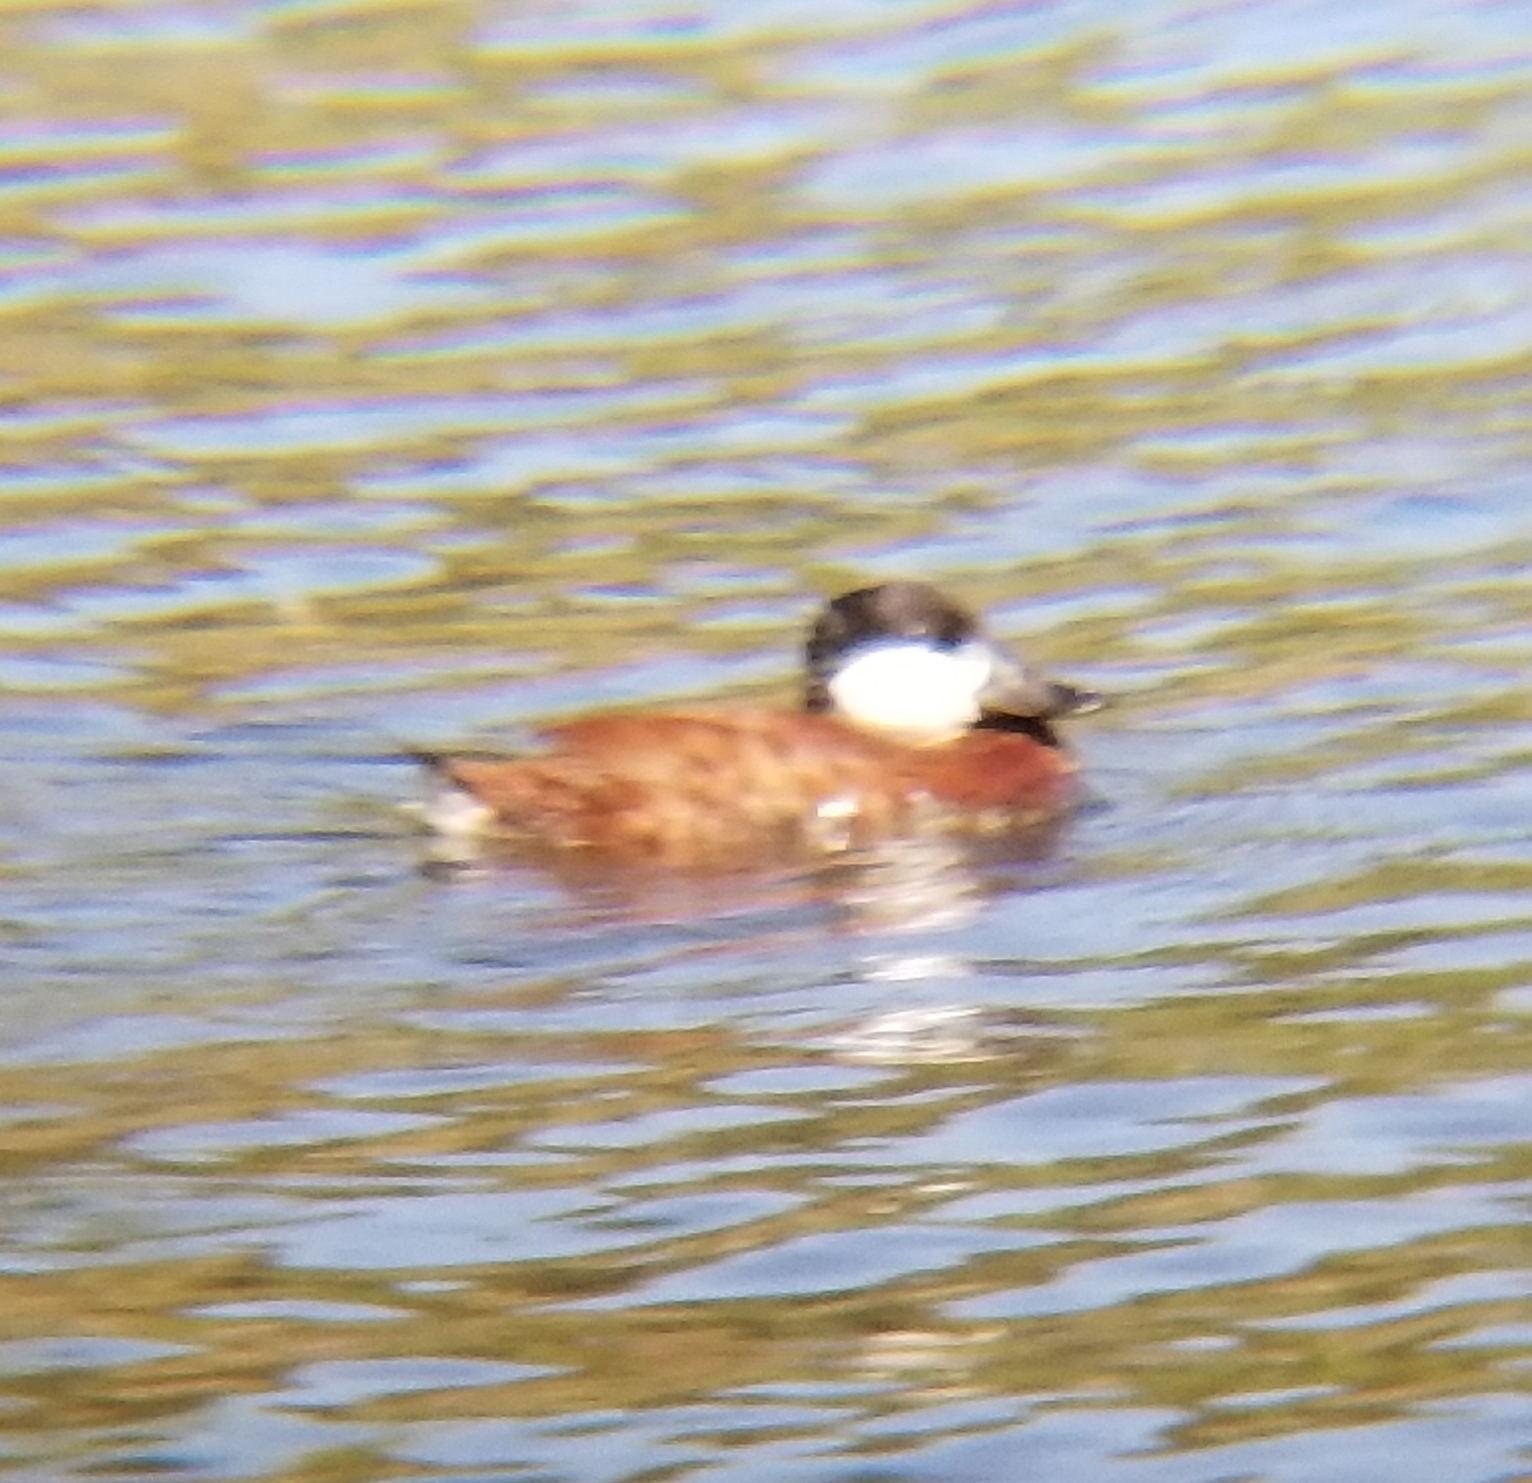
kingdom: Animalia
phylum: Chordata
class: Aves
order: Anseriformes
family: Anatidae
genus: Oxyura
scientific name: Oxyura jamaicensis
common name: Ruddy duck
